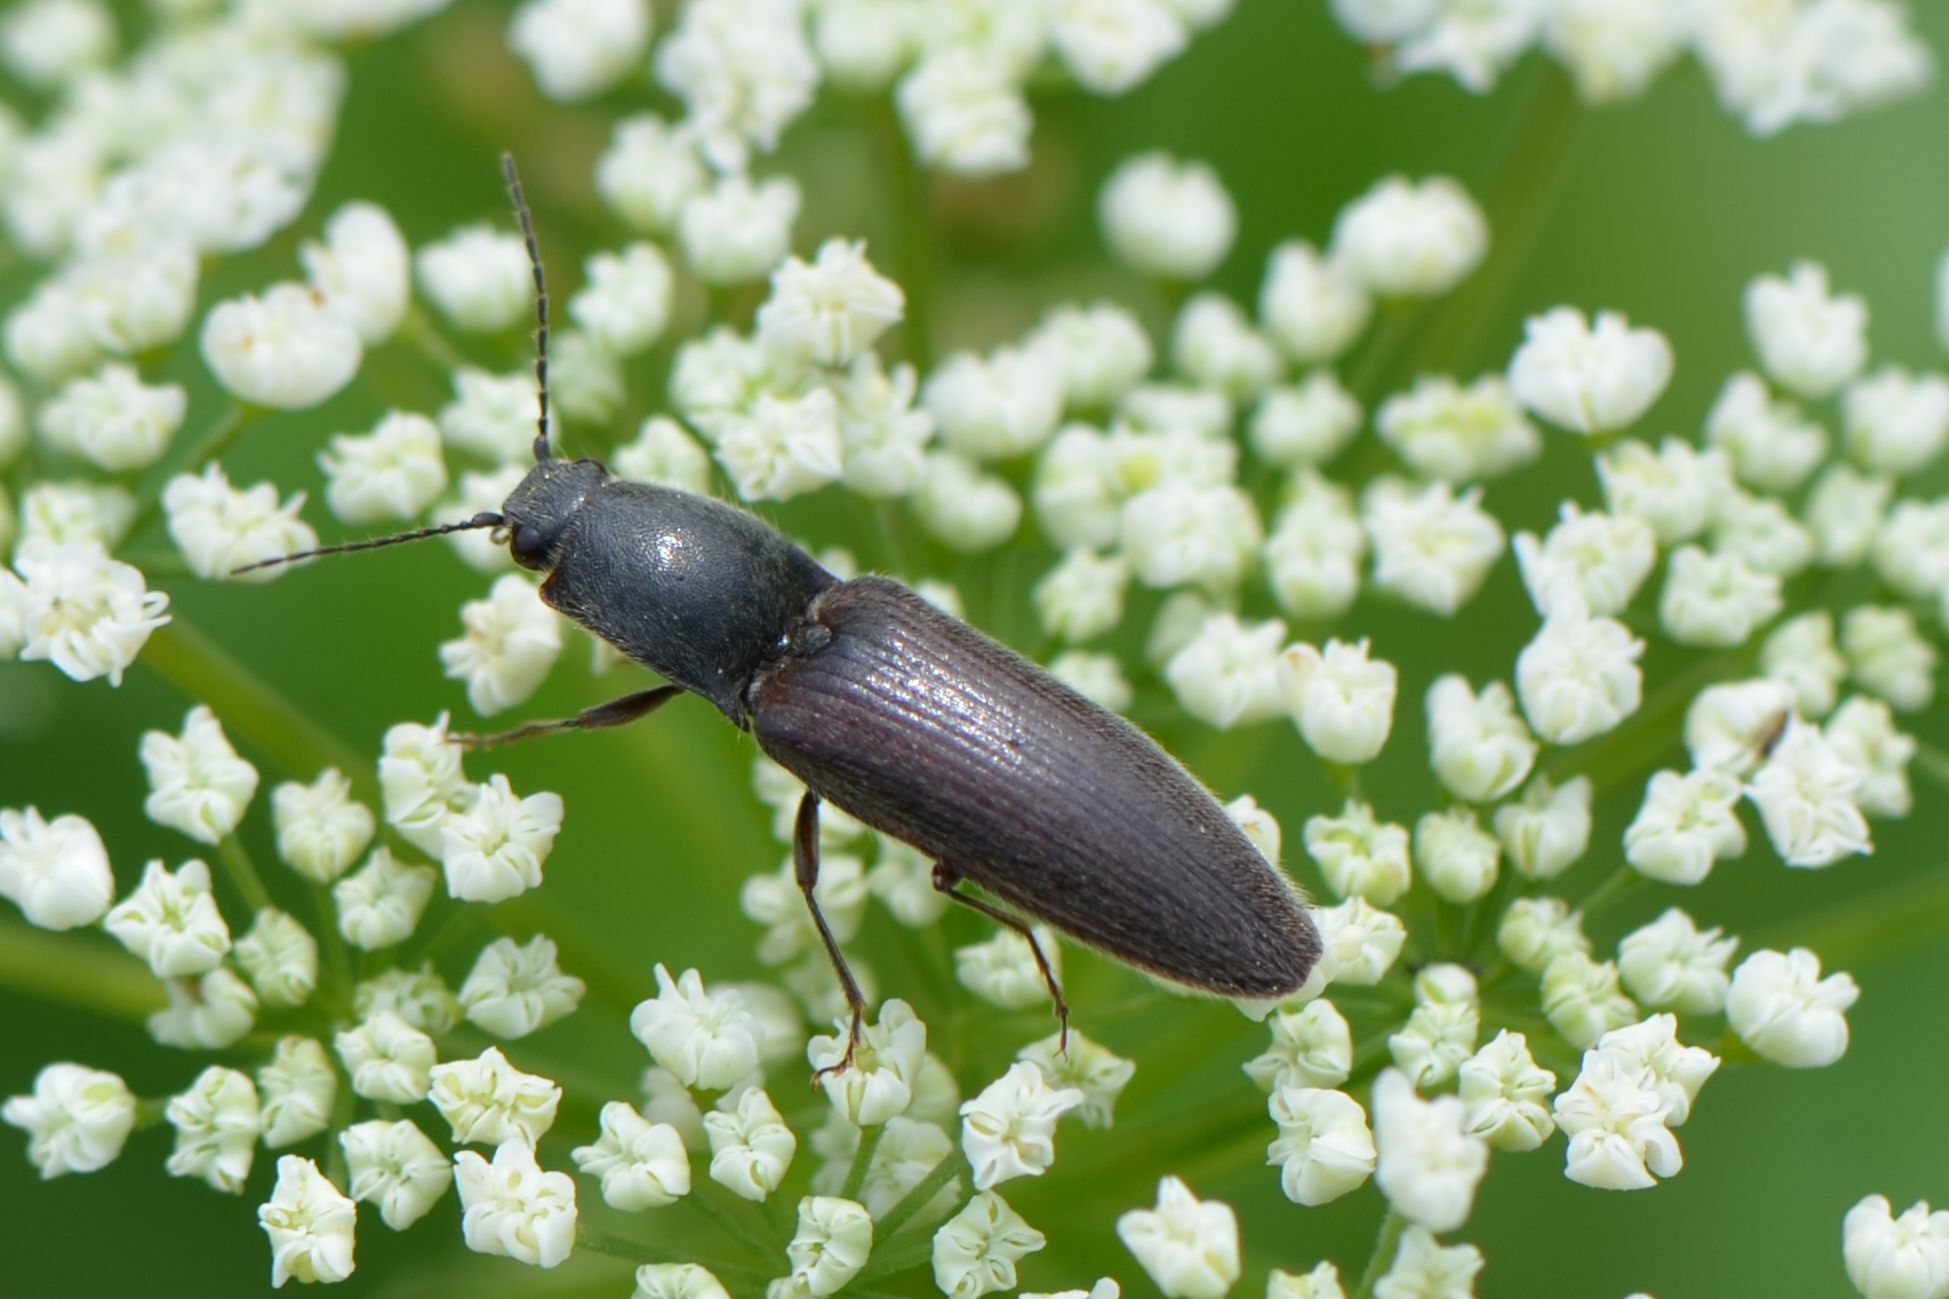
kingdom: Animalia
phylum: Arthropoda
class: Insecta
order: Coleoptera
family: Elateridae
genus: Athous
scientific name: Athous haemorrhoidalis
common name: Red-brown click beetle
